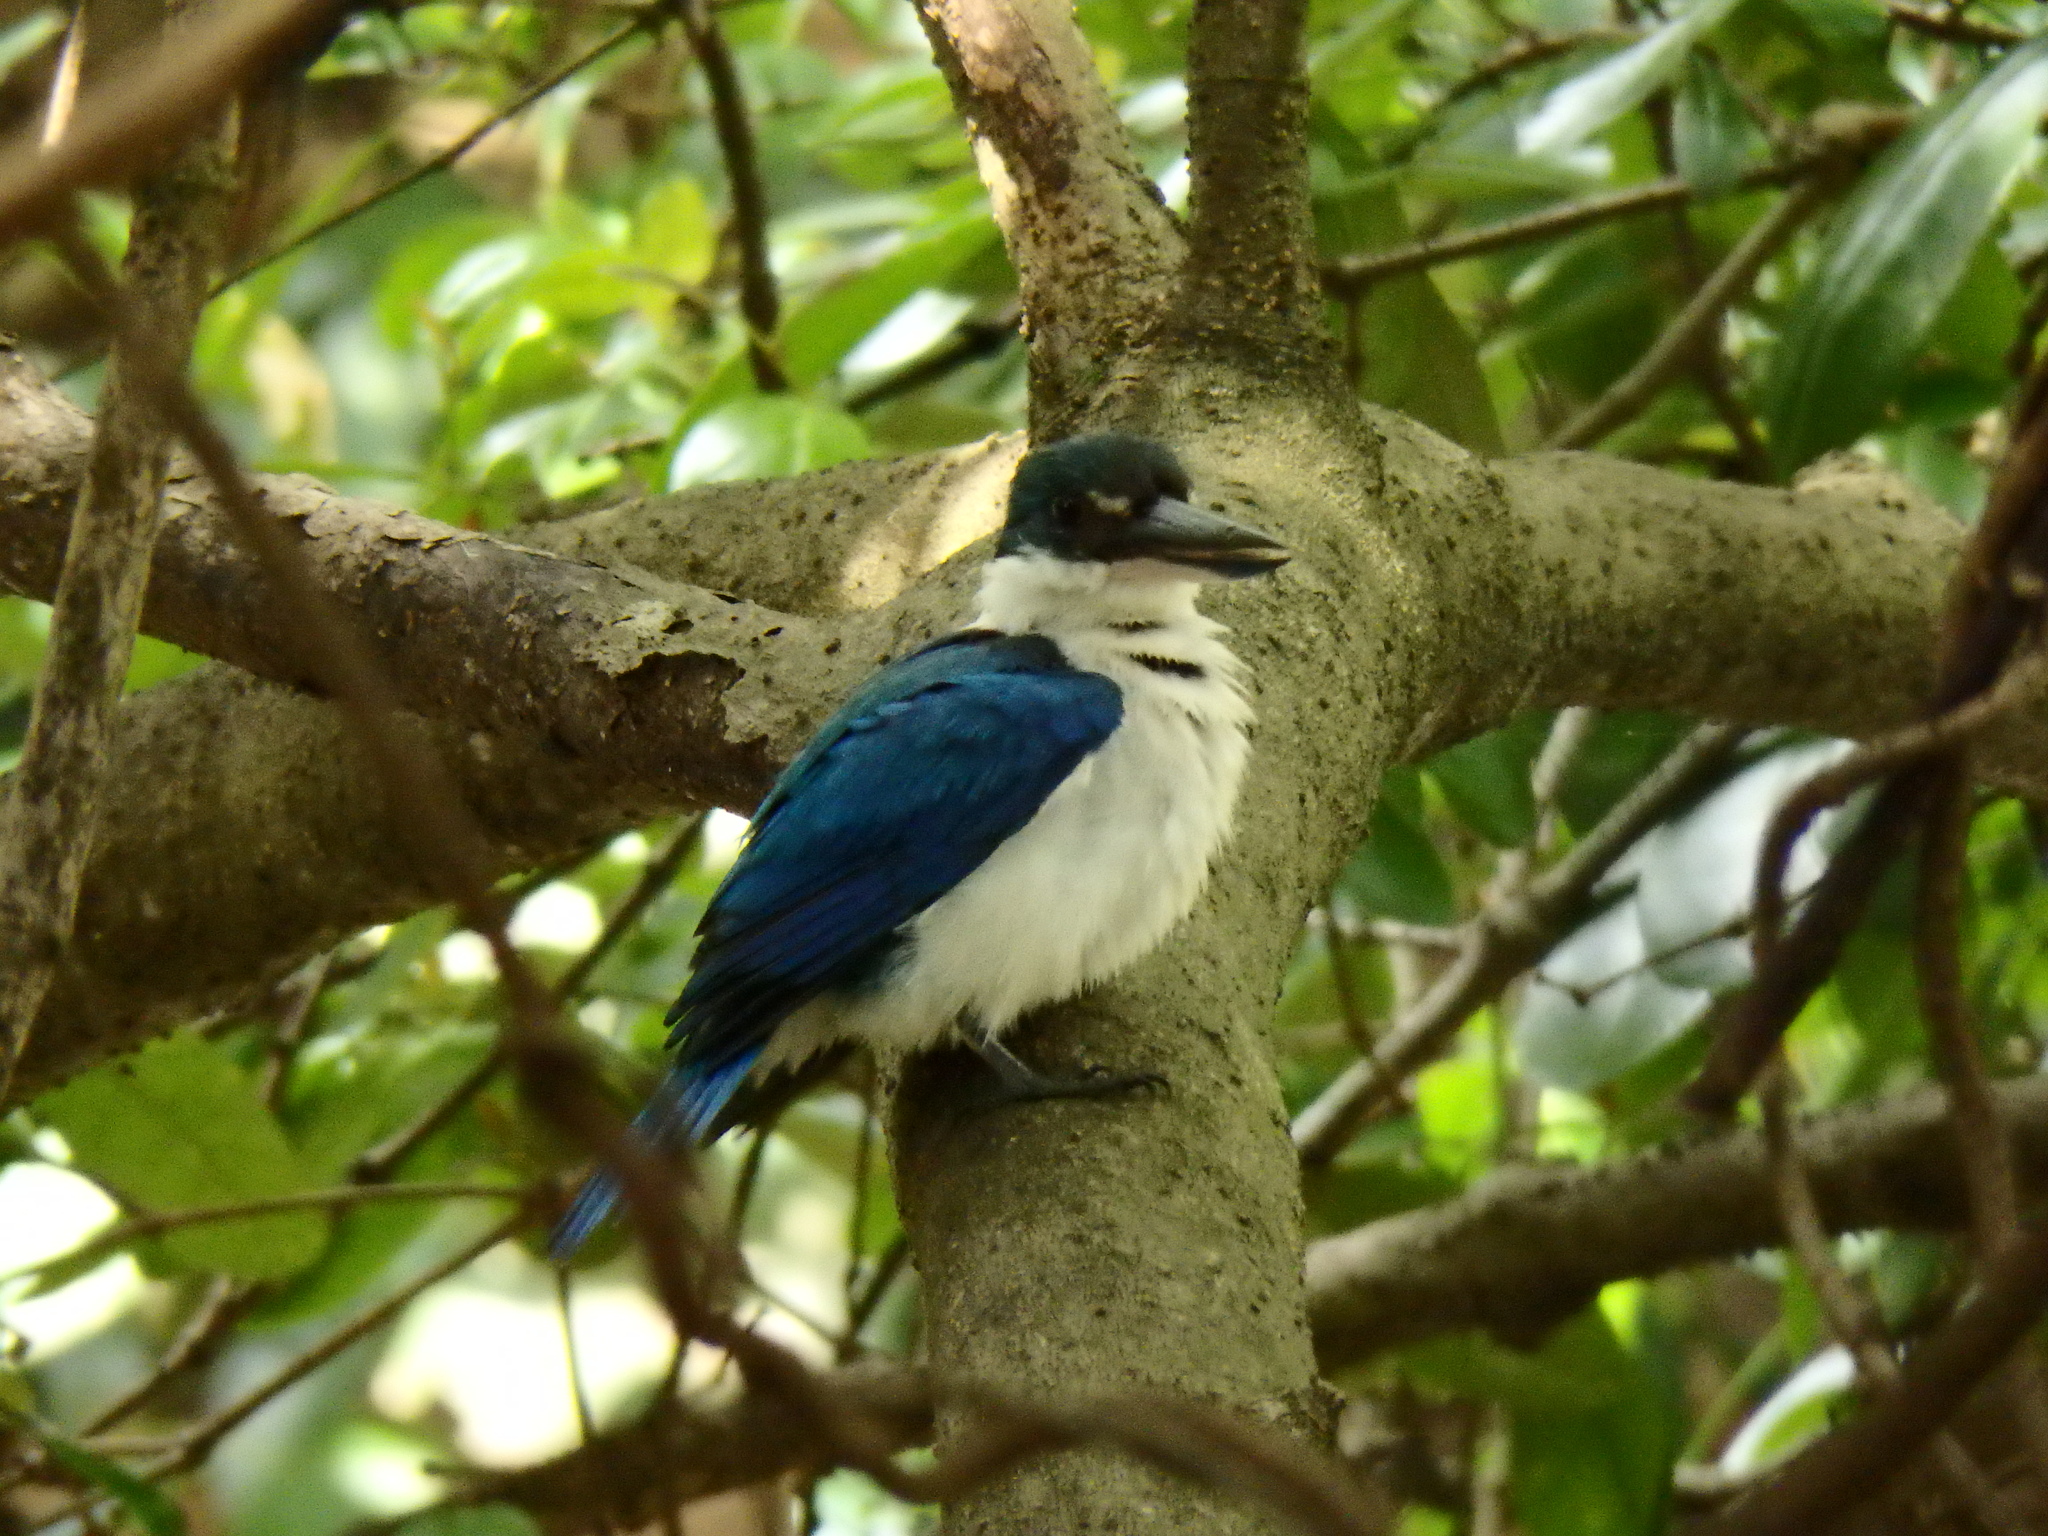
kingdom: Animalia
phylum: Chordata
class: Aves
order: Coraciiformes
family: Alcedinidae
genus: Todiramphus
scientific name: Todiramphus chloris
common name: Collared kingfisher
